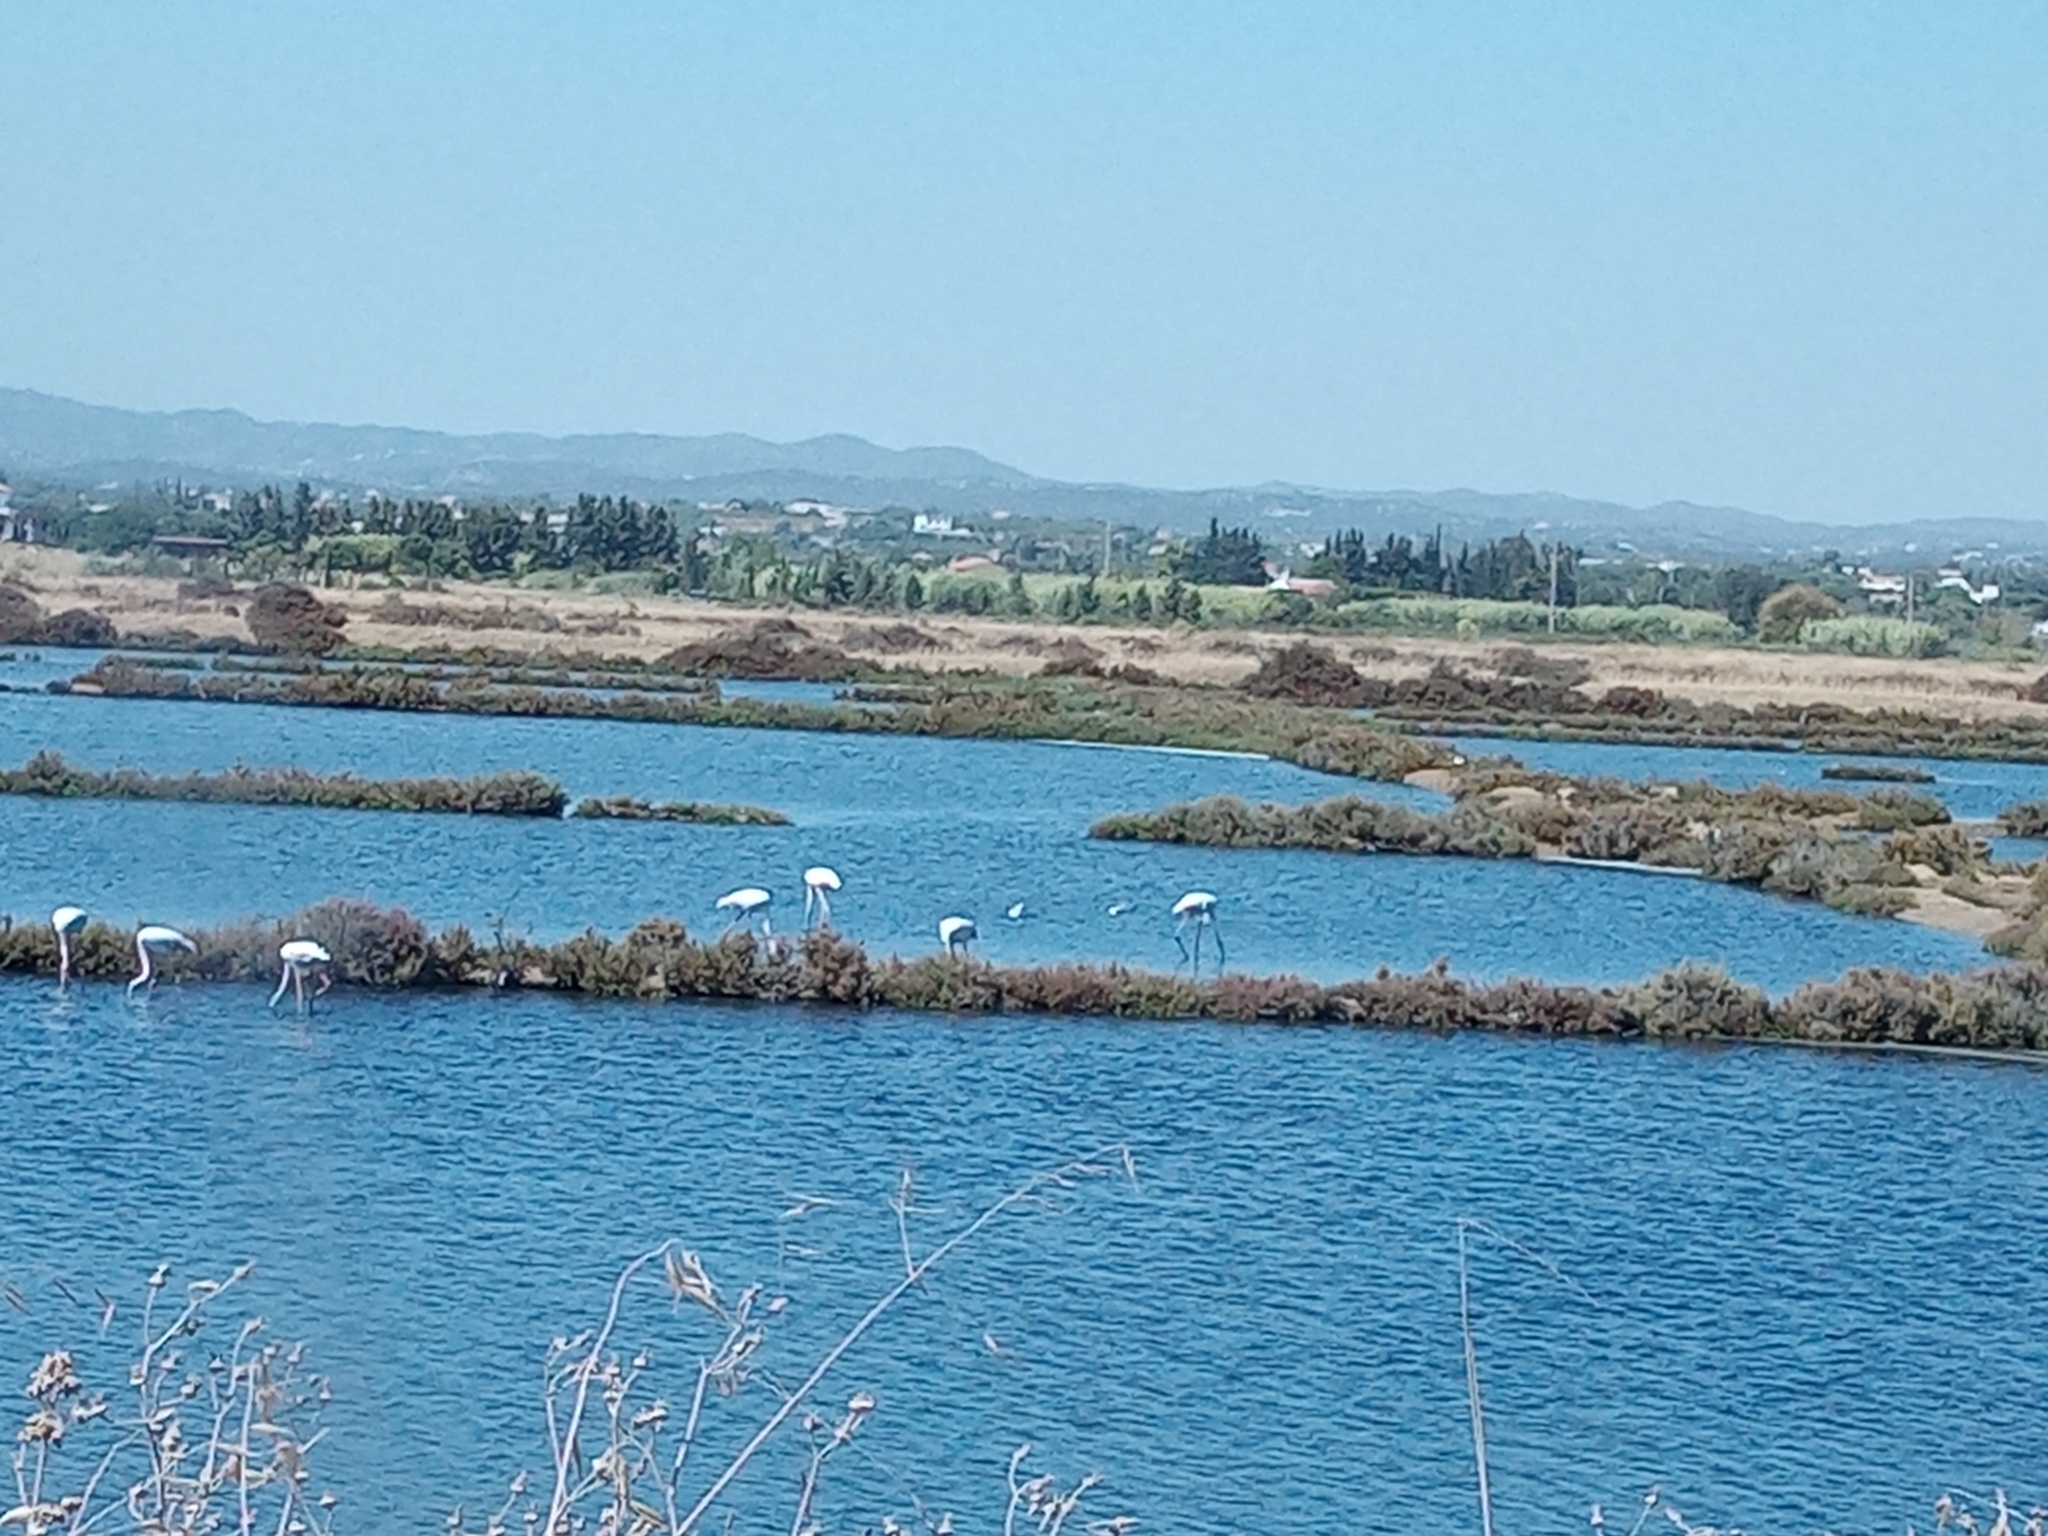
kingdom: Animalia
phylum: Chordata
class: Aves
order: Phoenicopteriformes
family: Phoenicopteridae
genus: Phoenicopterus
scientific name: Phoenicopterus roseus
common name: Greater flamingo
